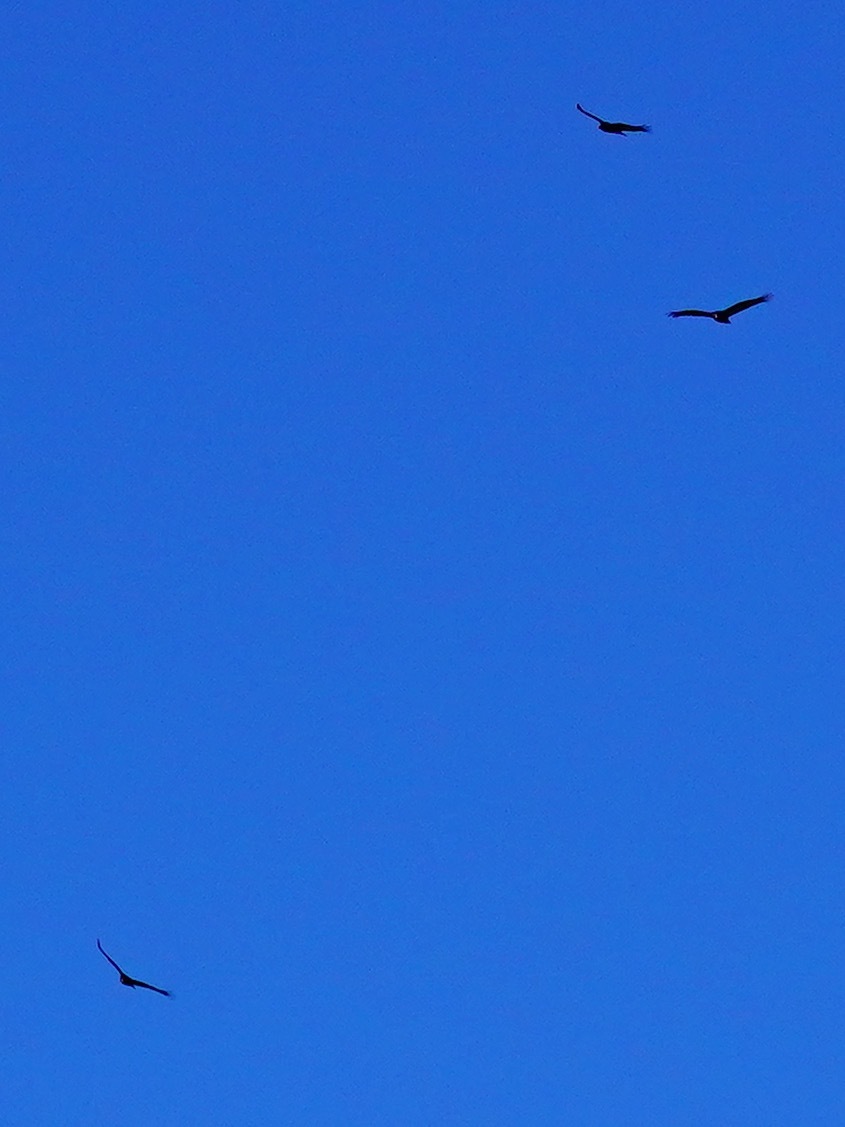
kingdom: Animalia
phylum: Chordata
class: Aves
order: Accipitriformes
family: Cathartidae
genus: Cathartes
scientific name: Cathartes aura
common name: Turkey vulture
